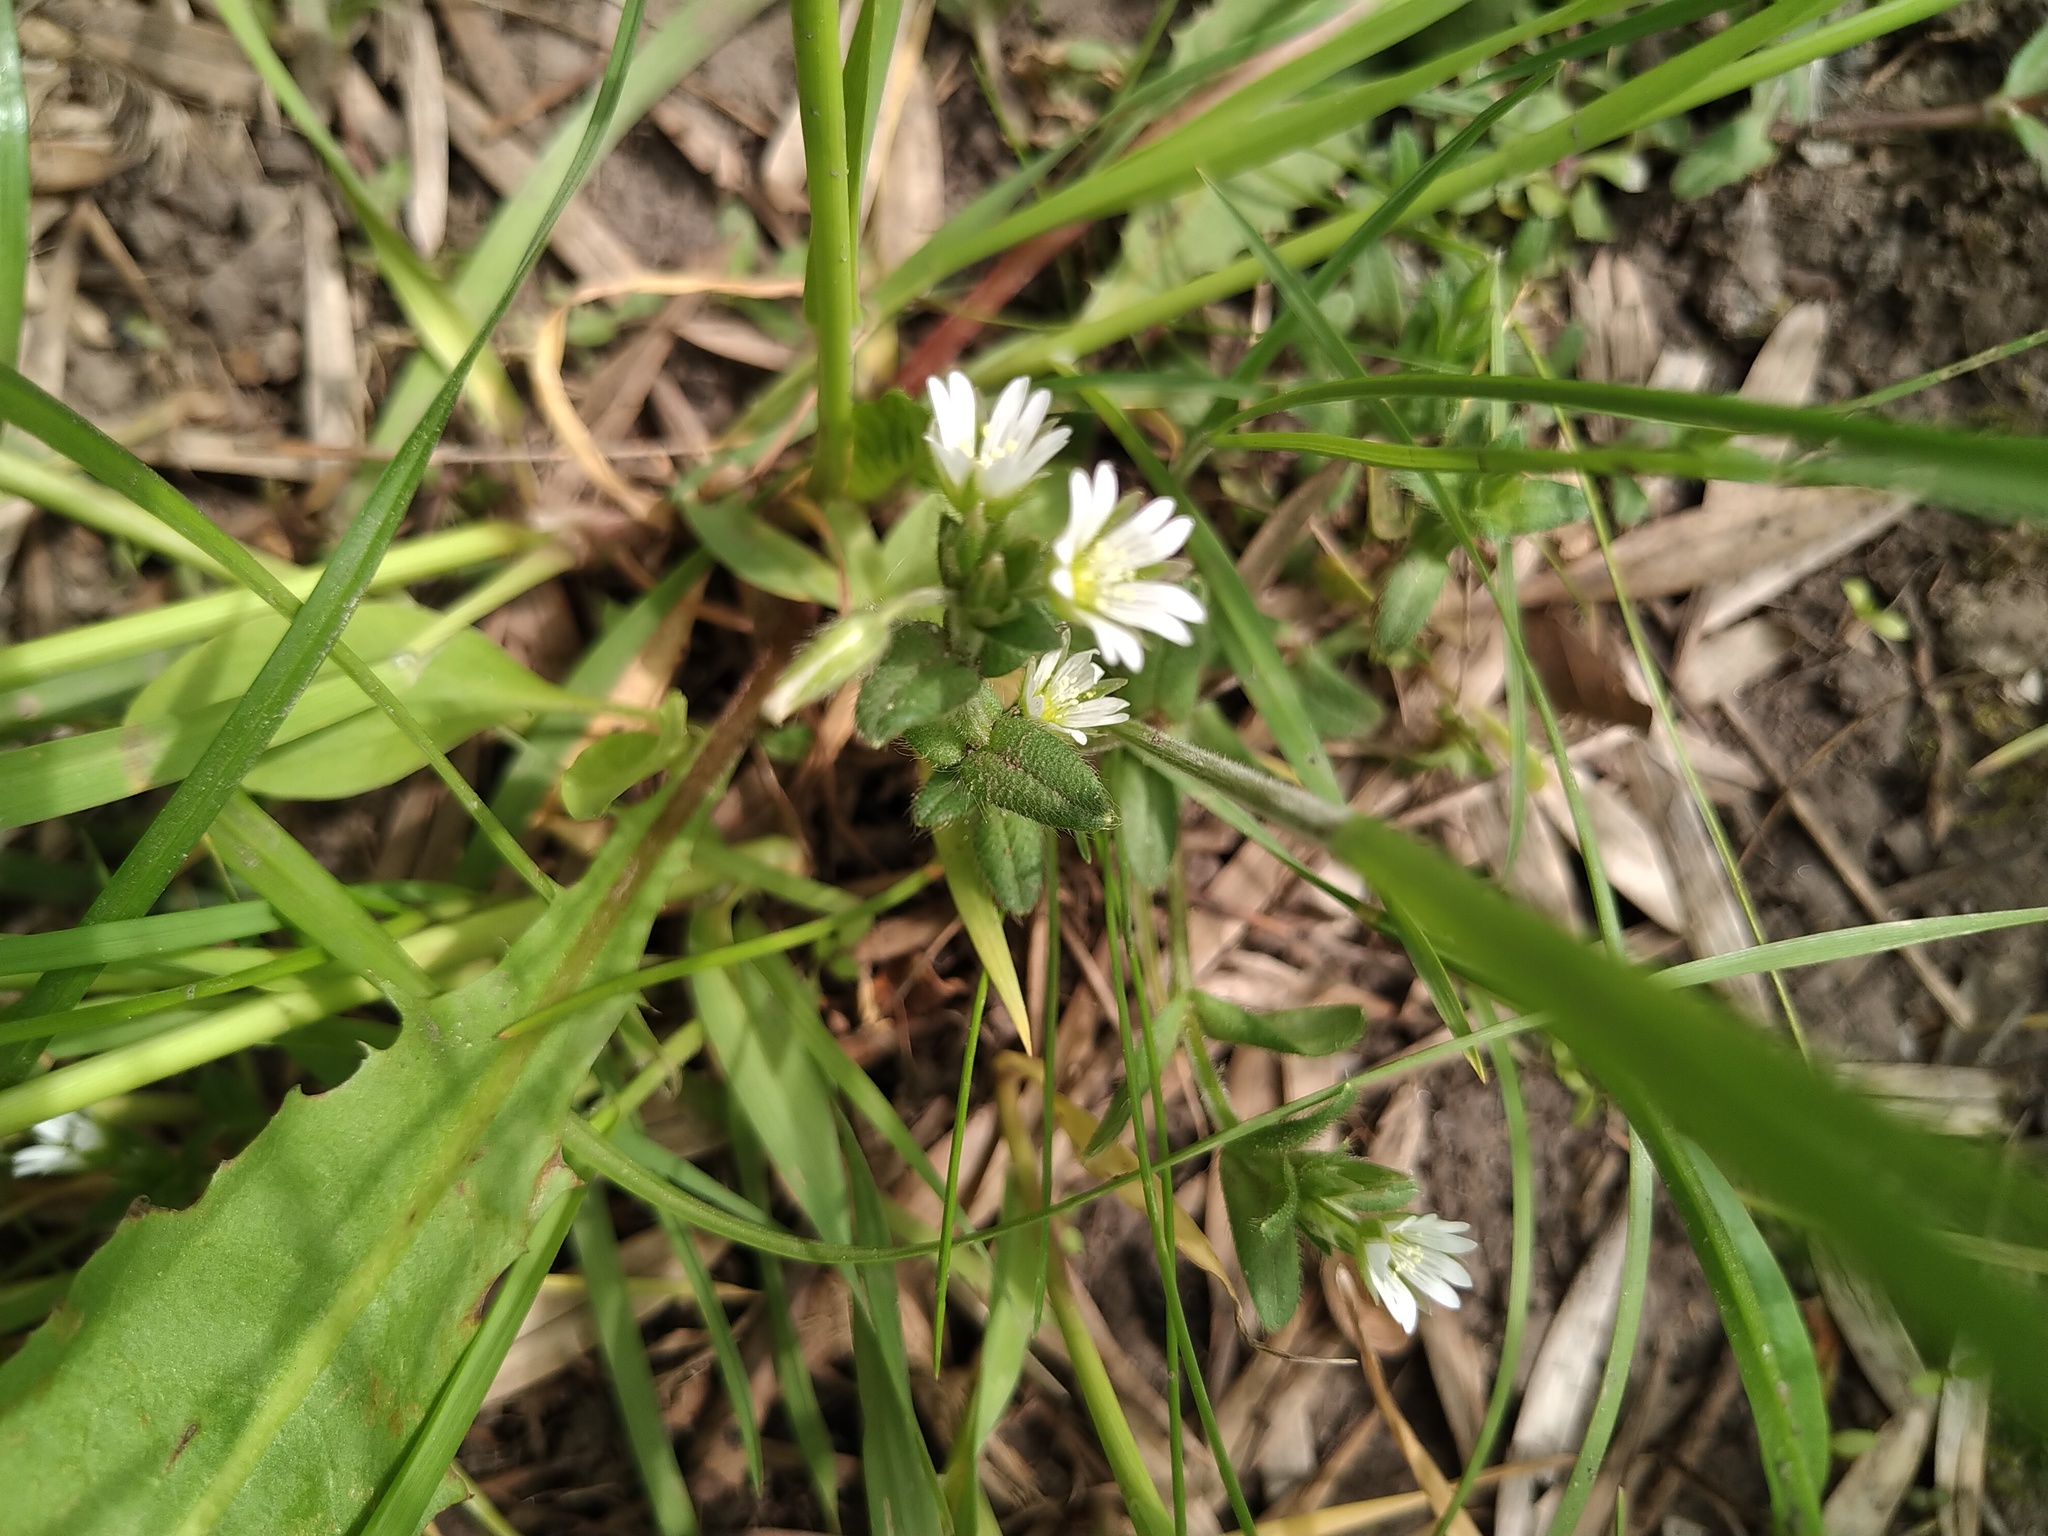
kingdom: Plantae
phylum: Tracheophyta
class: Magnoliopsida
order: Caryophyllales
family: Caryophyllaceae
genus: Cerastium
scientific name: Cerastium holosteoides
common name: Big chickweed
